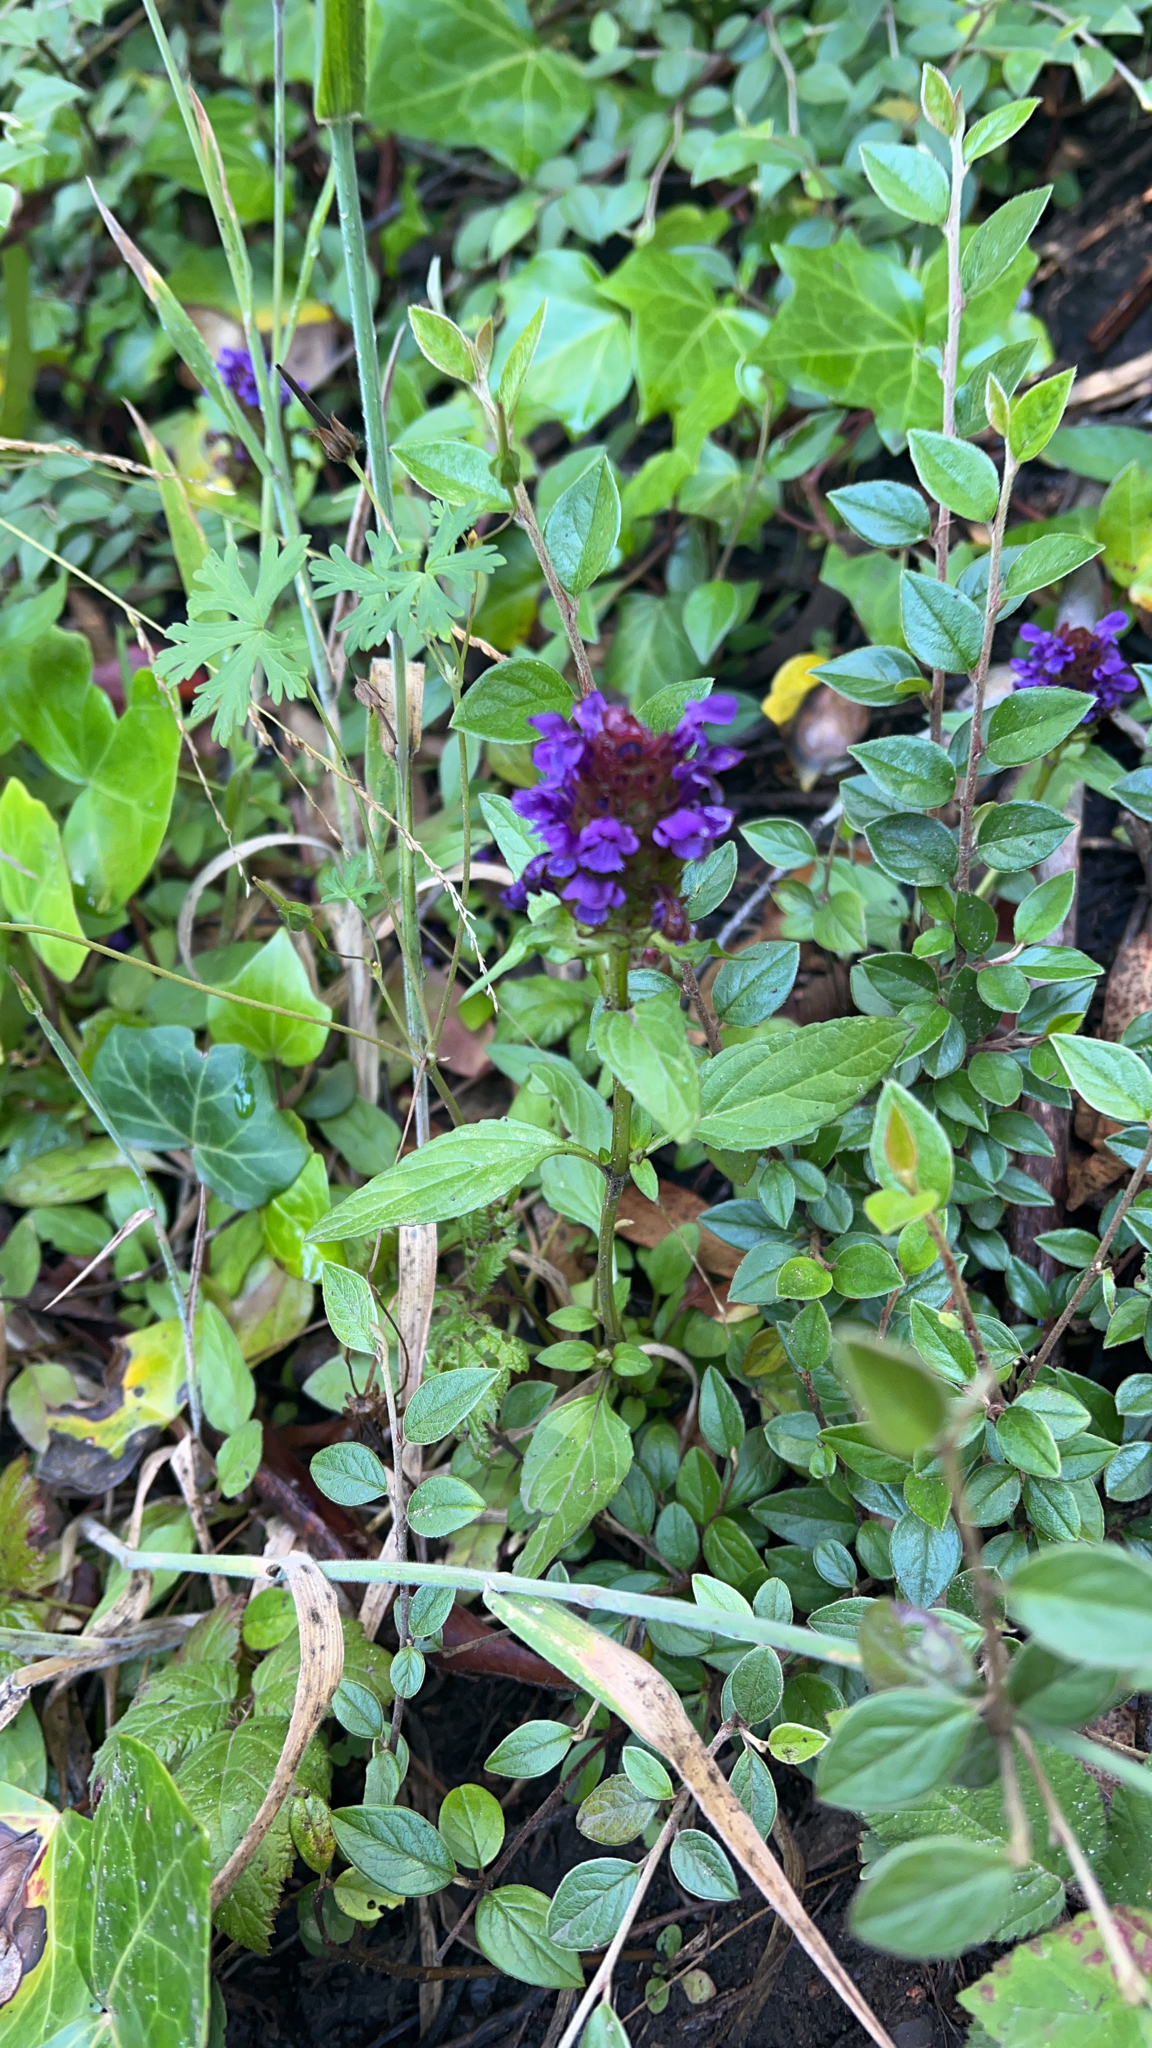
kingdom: Plantae
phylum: Tracheophyta
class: Magnoliopsida
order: Lamiales
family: Lamiaceae
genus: Prunella
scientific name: Prunella vulgaris
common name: Heal-all
